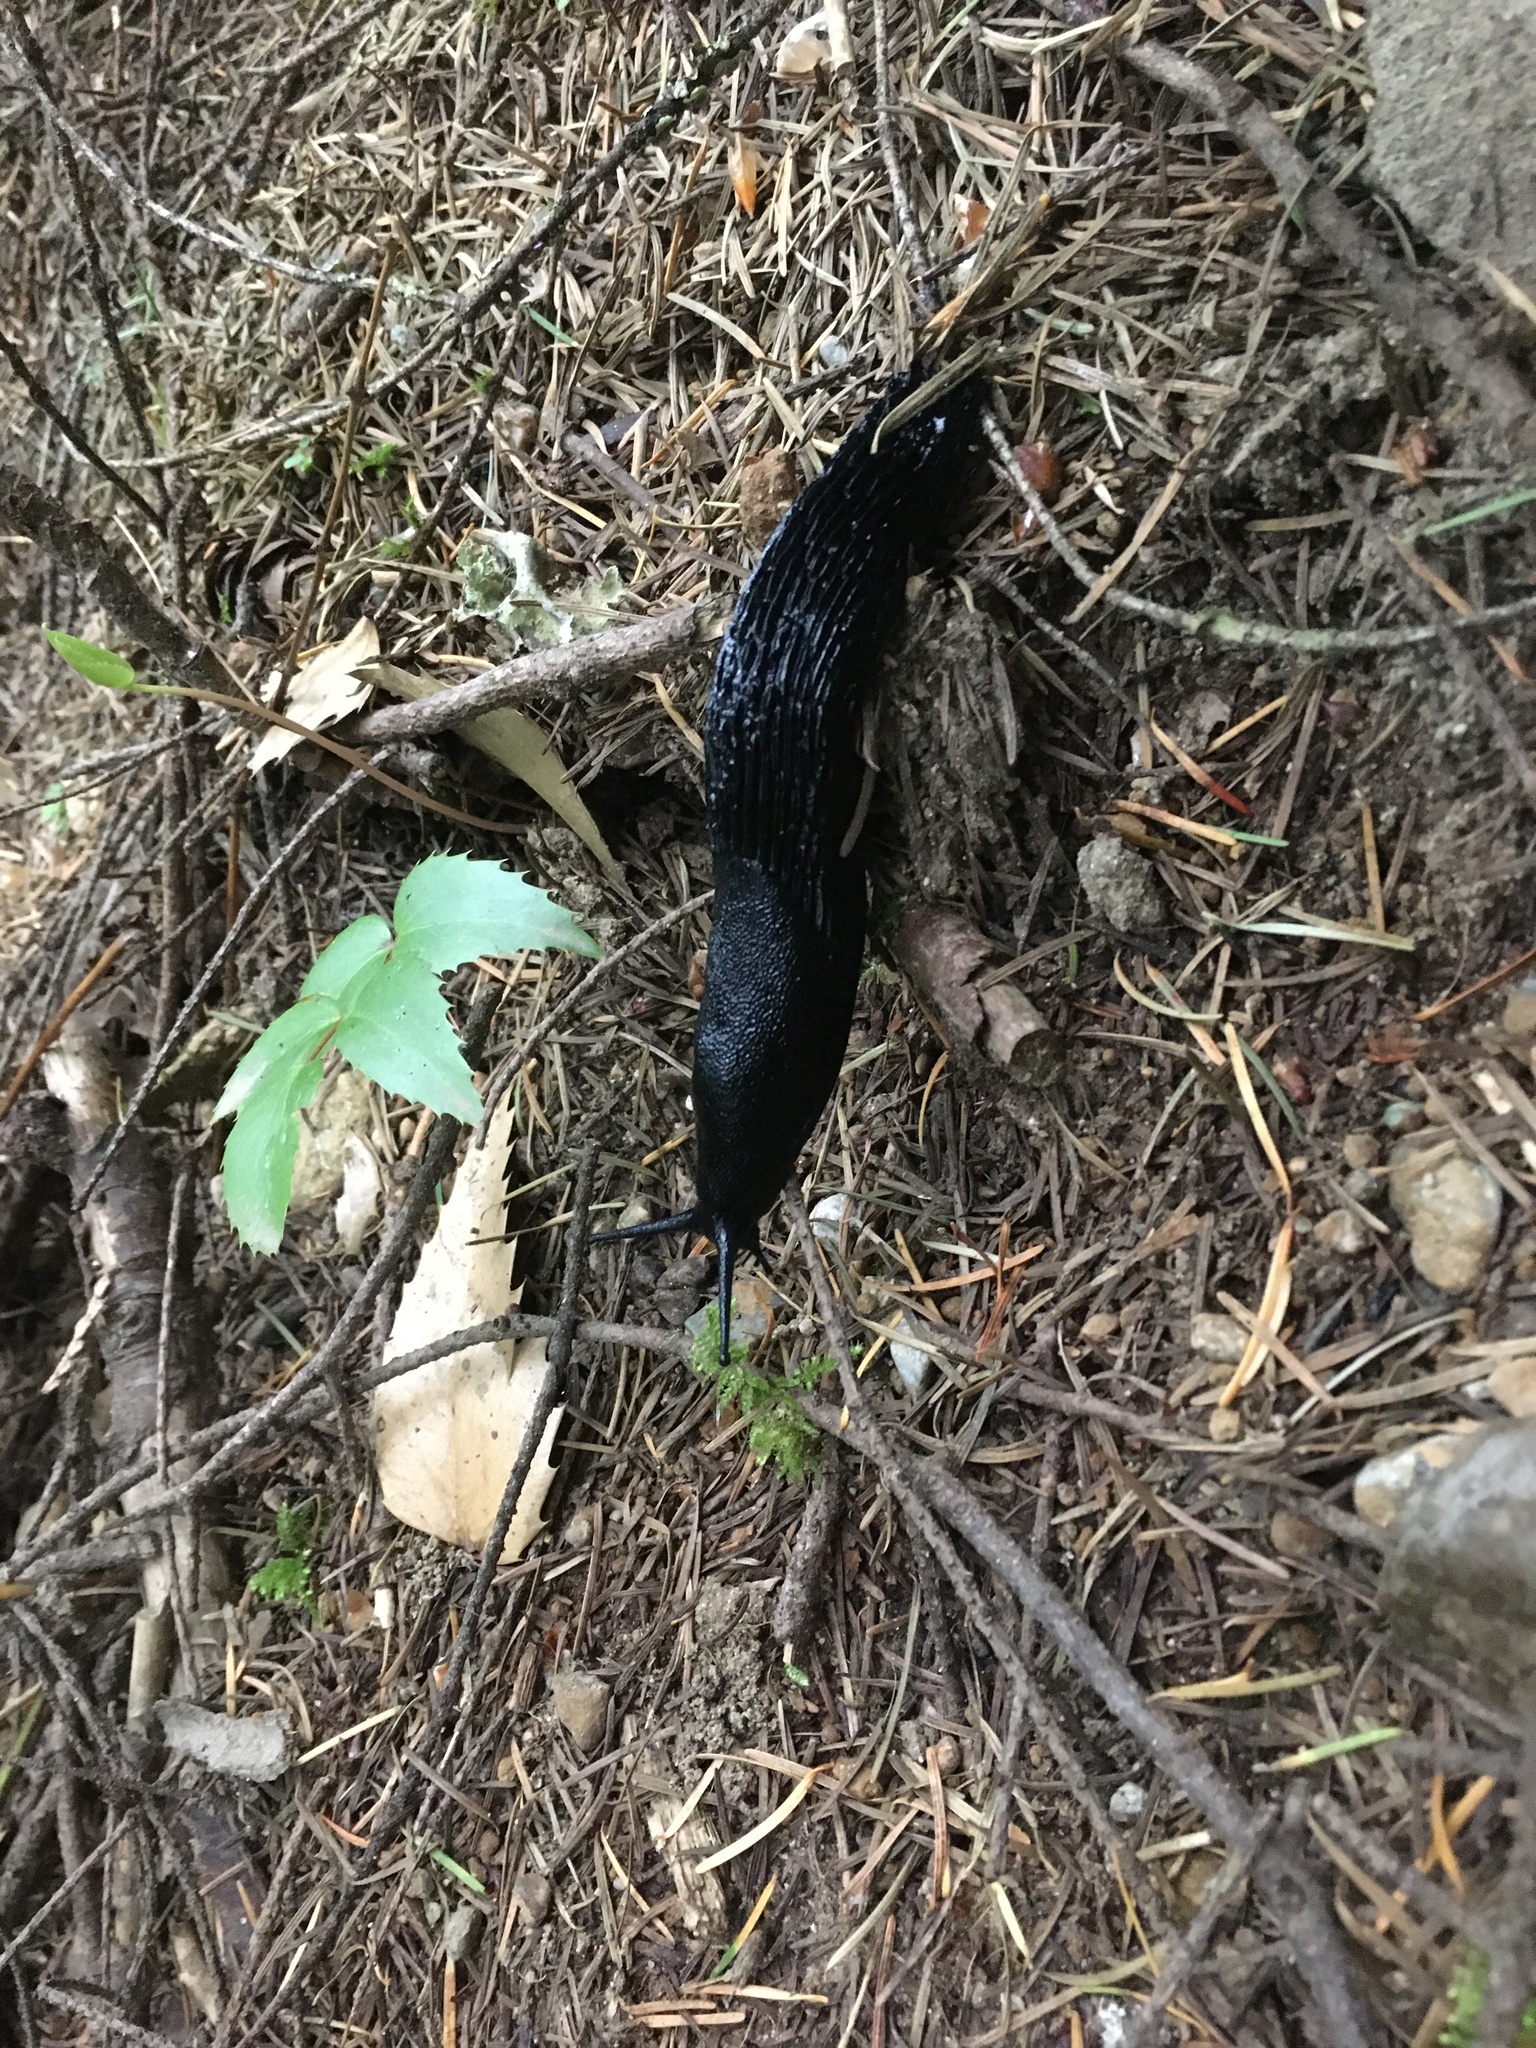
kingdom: Animalia
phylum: Mollusca
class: Gastropoda
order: Stylommatophora
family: Arionidae
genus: Arion
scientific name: Arion
